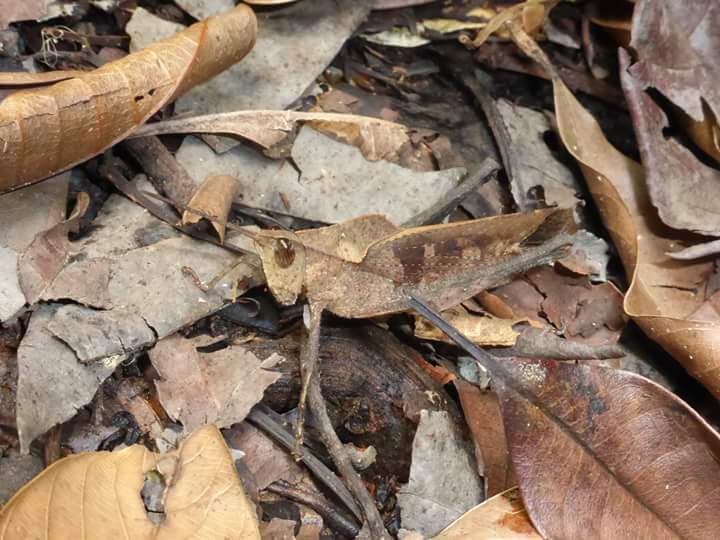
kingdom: Animalia
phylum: Arthropoda
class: Insecta
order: Orthoptera
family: Romaleidae
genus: Colpolopha
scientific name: Colpolopha obsoleta
